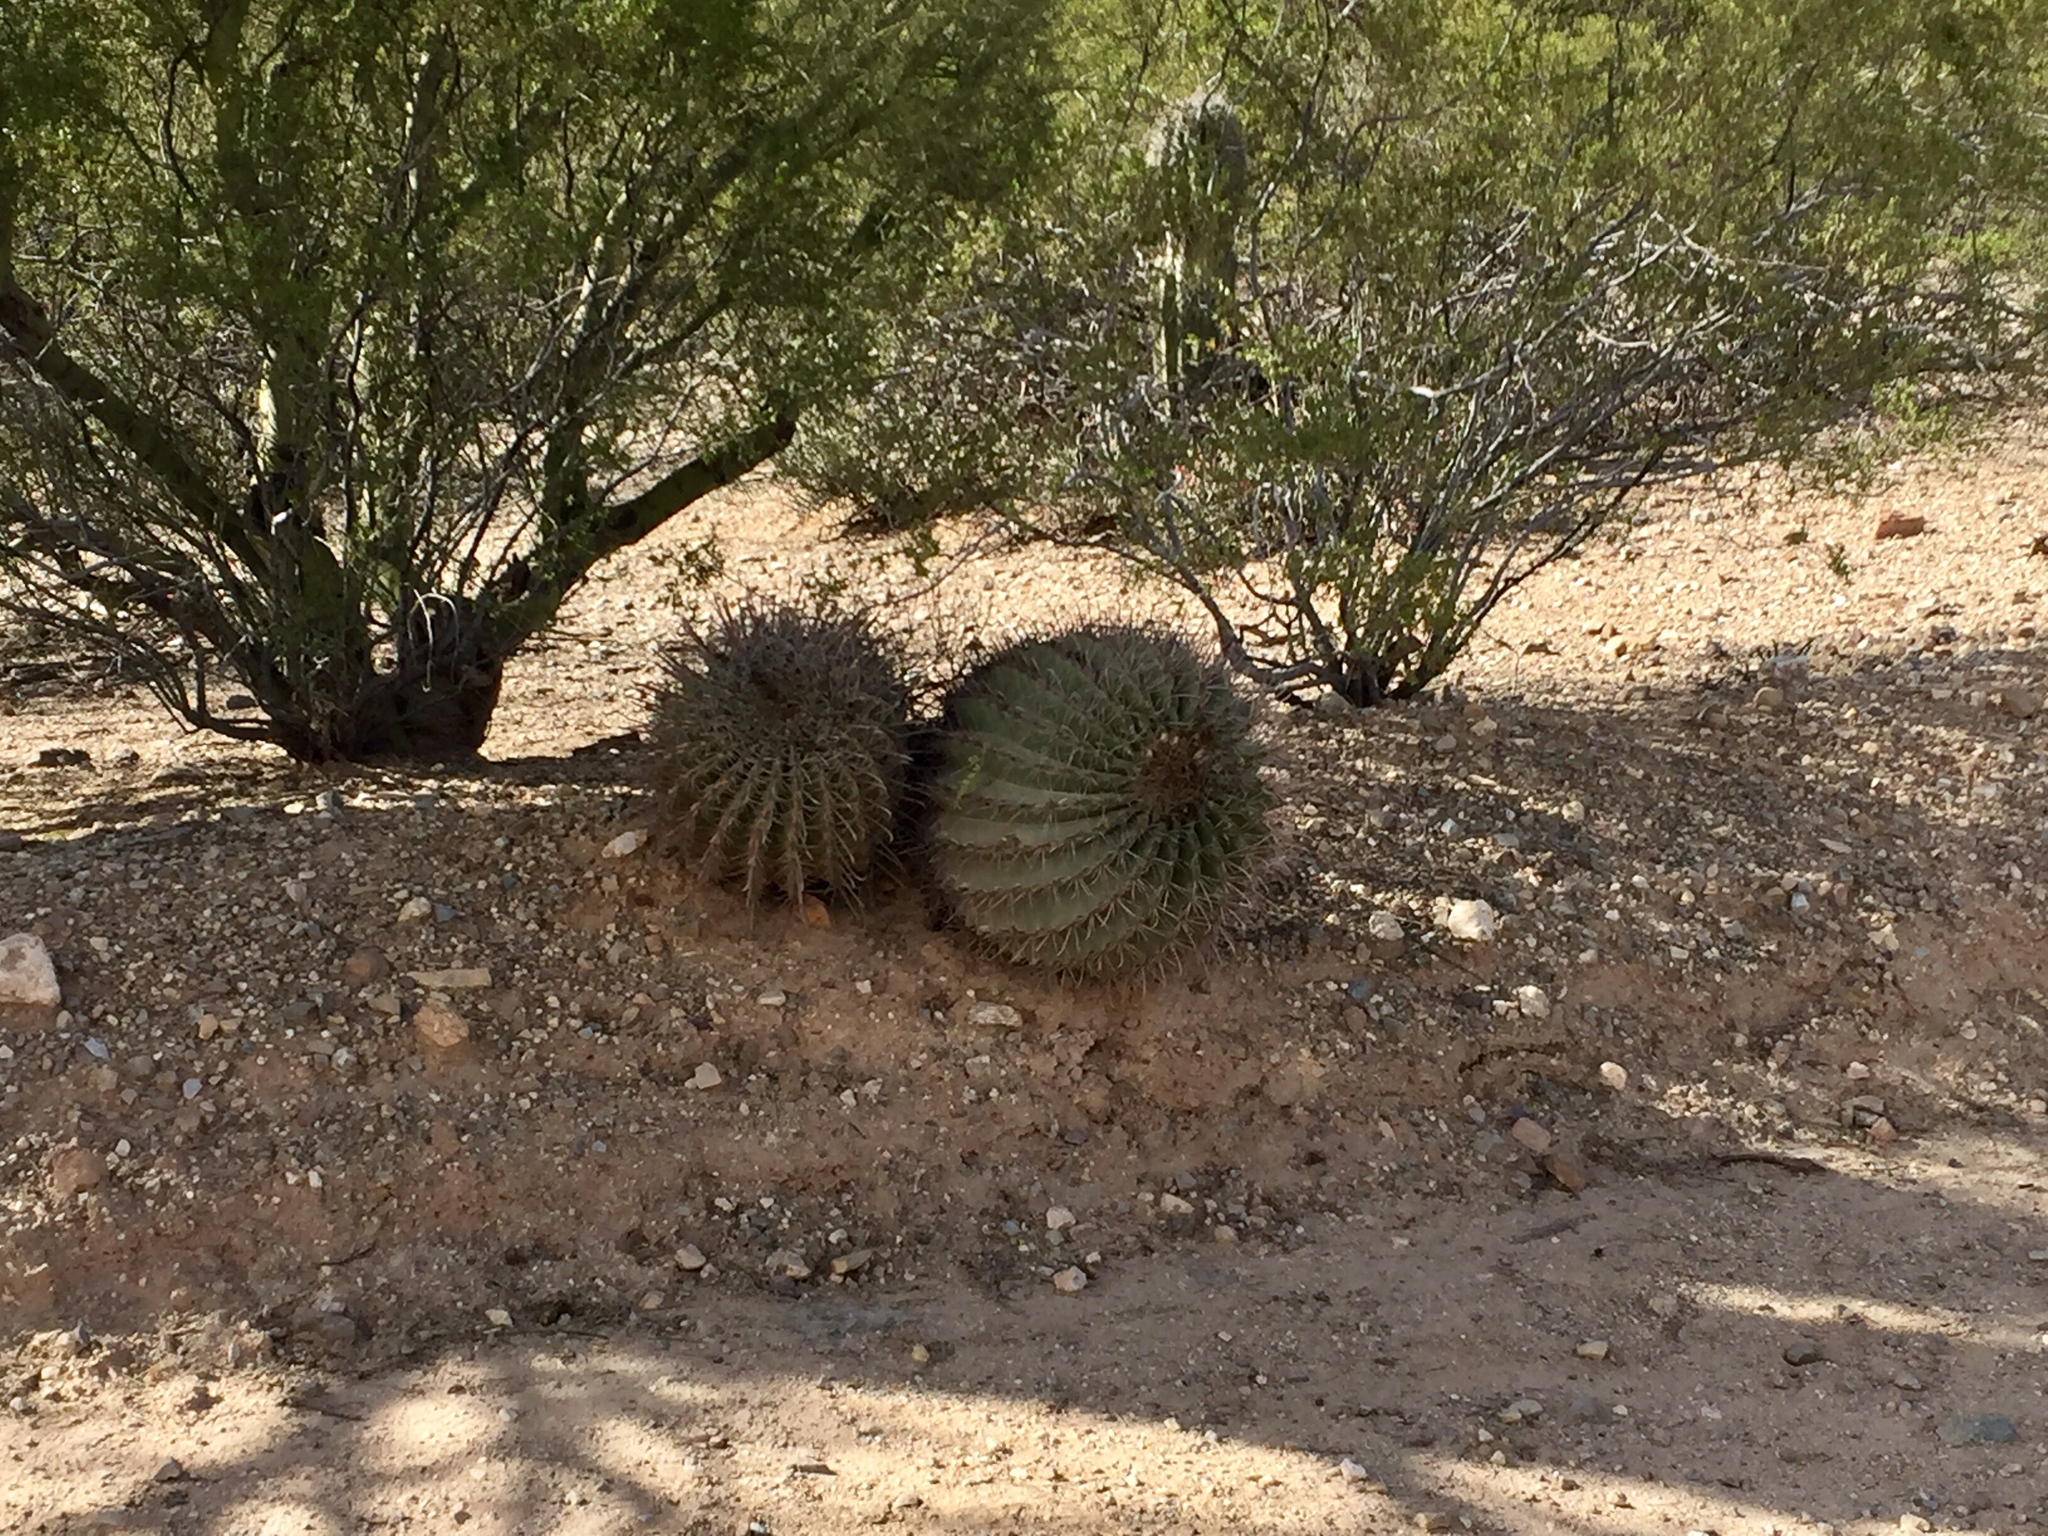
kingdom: Plantae
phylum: Tracheophyta
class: Magnoliopsida
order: Caryophyllales
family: Cactaceae
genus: Ferocactus
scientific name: Ferocactus wislizeni
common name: Candy barrel cactus
